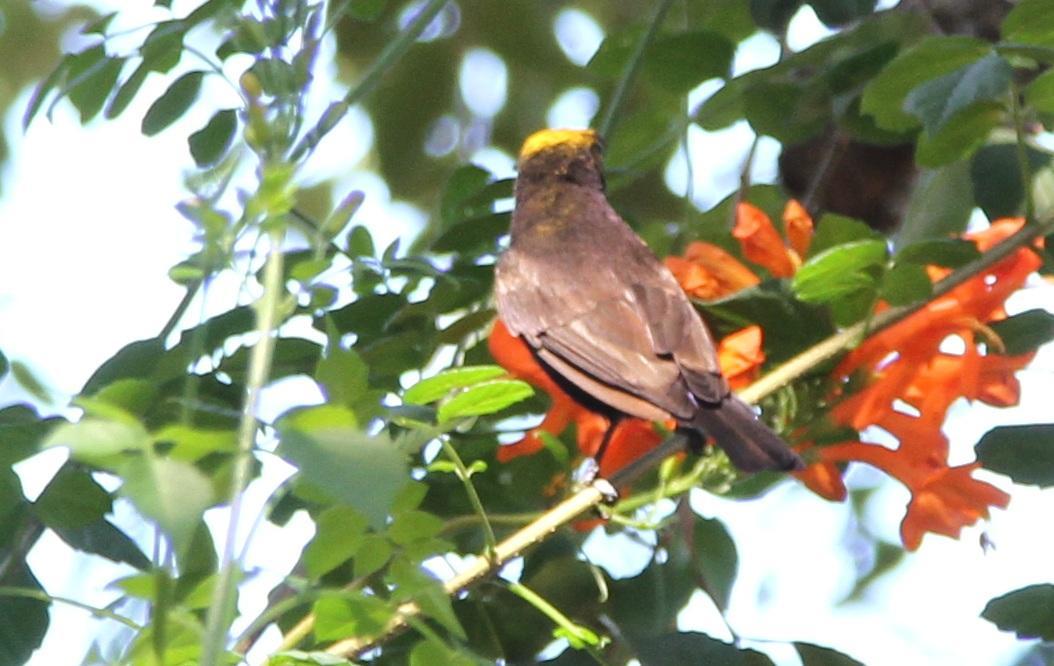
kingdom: Animalia
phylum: Chordata
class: Aves
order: Passeriformes
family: Nectariniidae
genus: Chalcomitra
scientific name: Chalcomitra amethystina
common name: Amethyst sunbird
